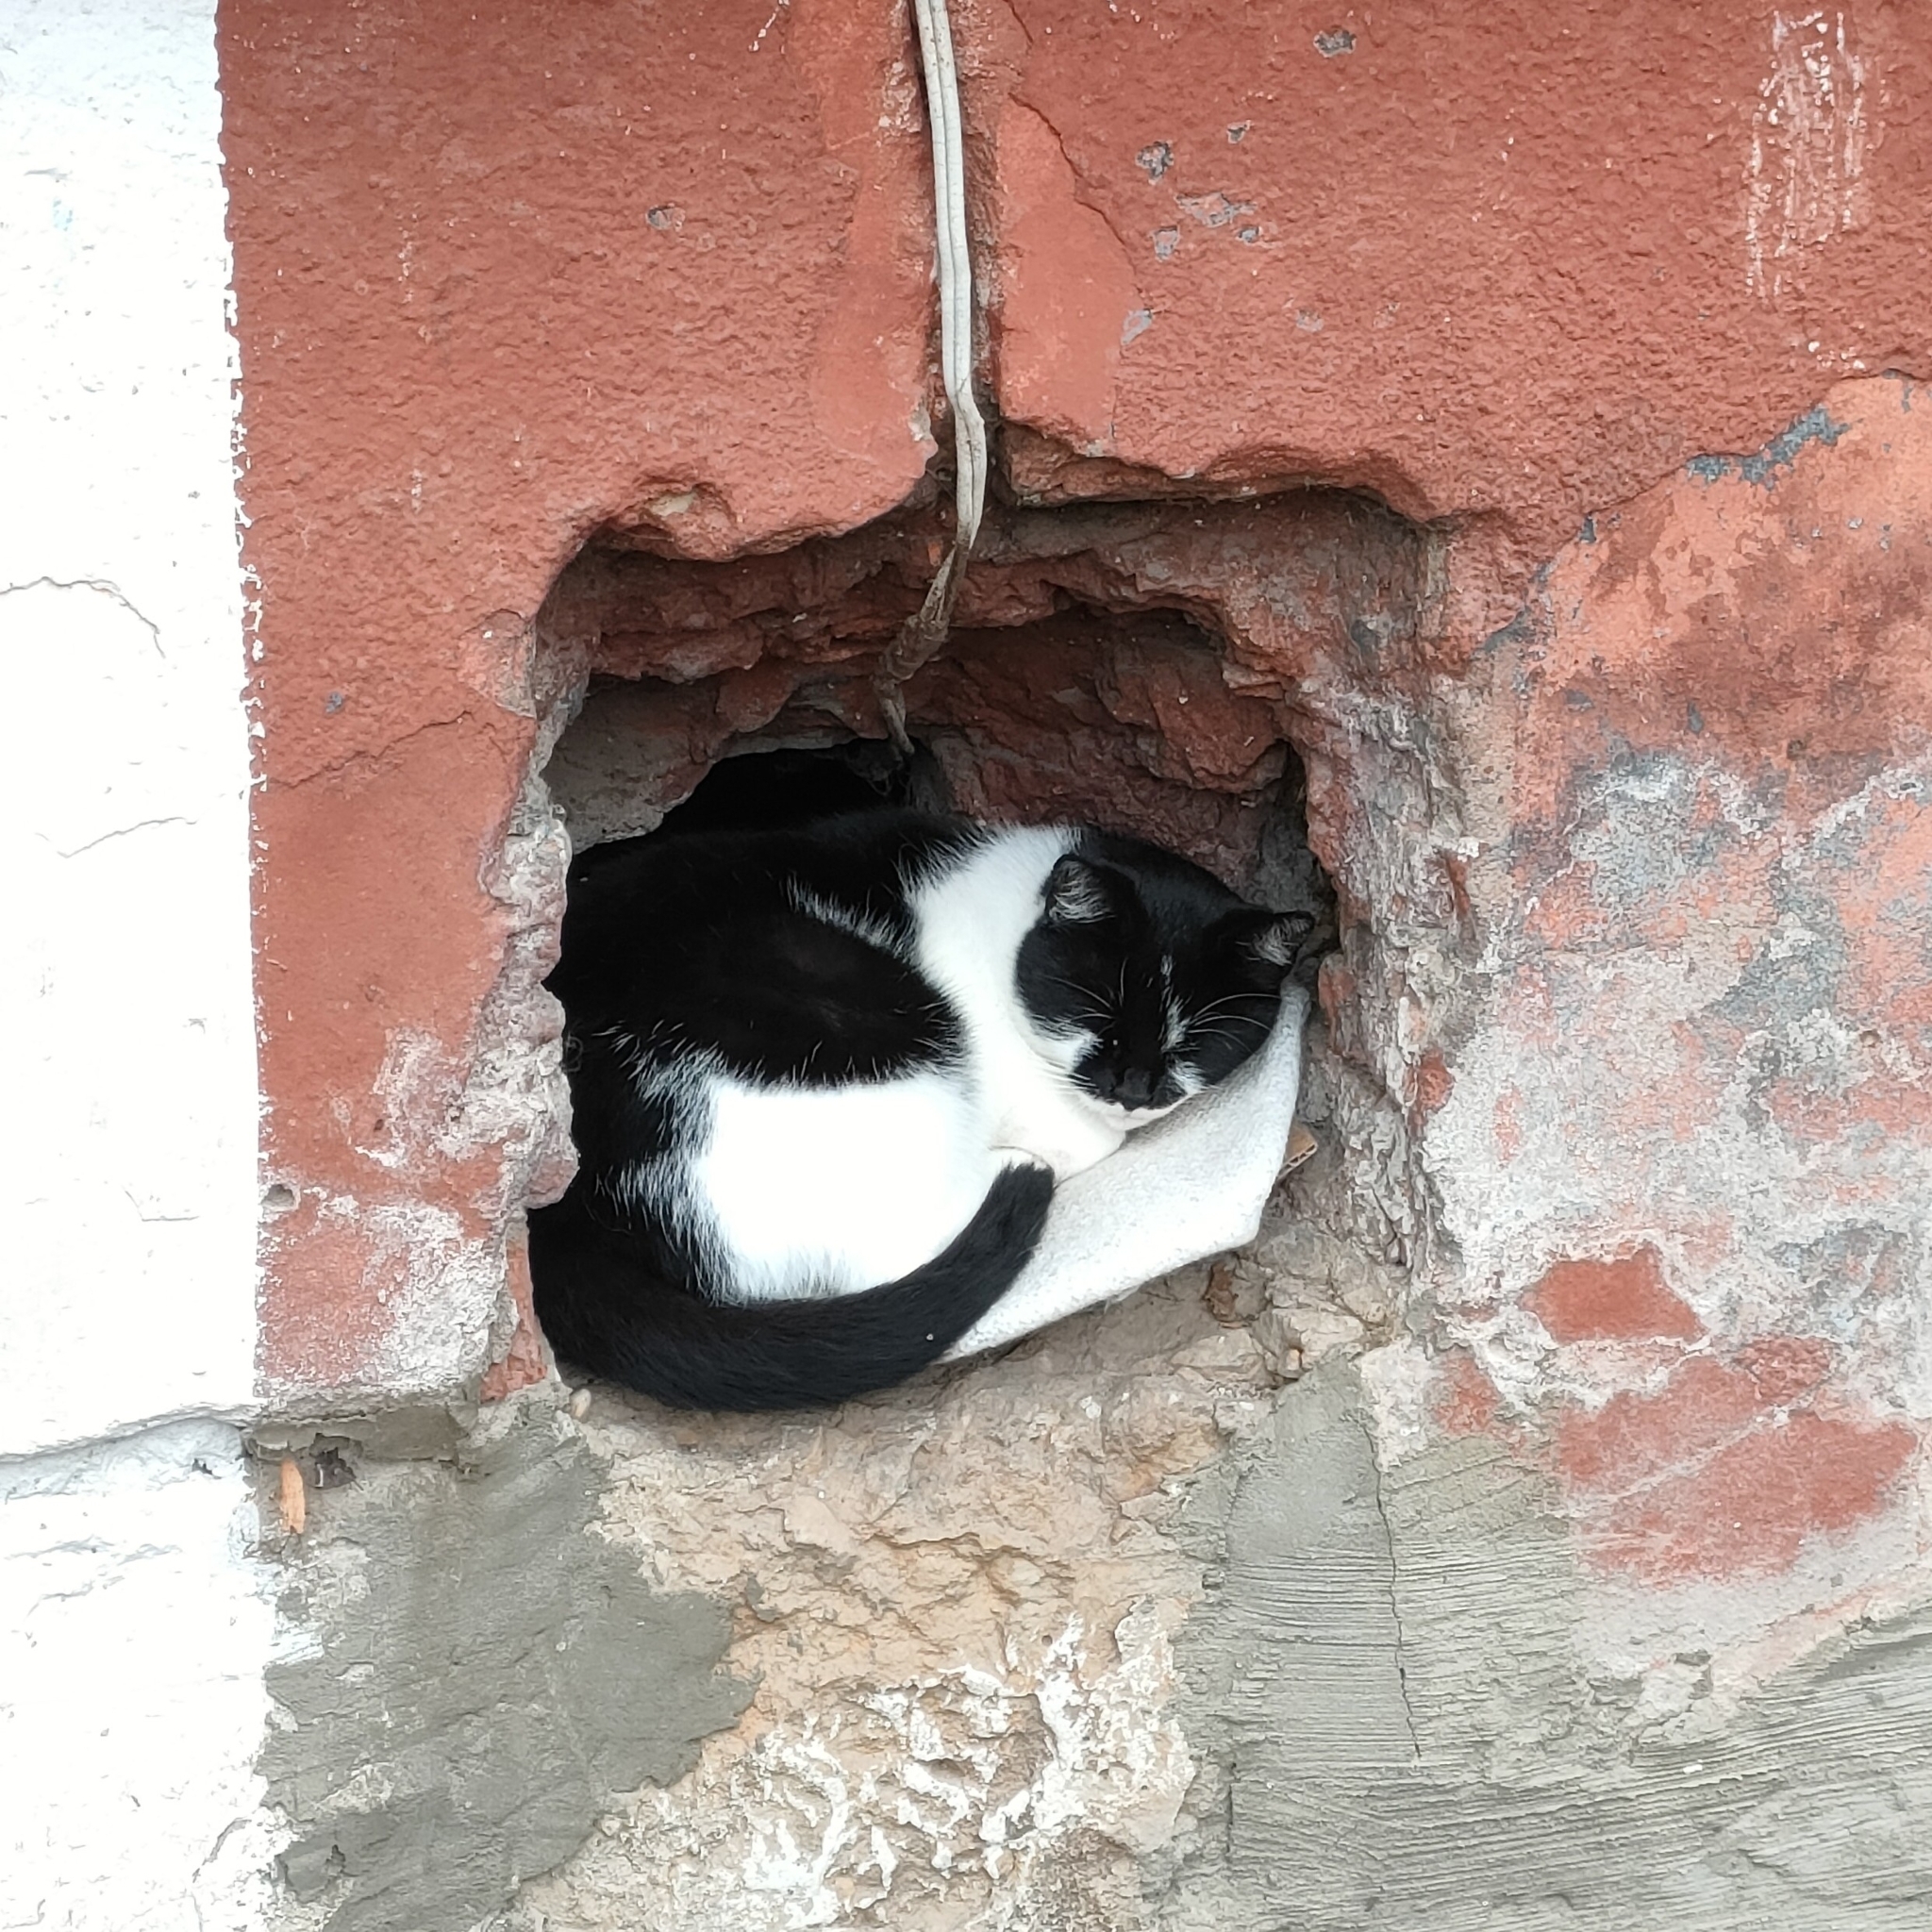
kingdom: Animalia
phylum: Chordata
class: Mammalia
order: Carnivora
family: Felidae
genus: Felis
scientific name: Felis catus
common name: Domestic cat
